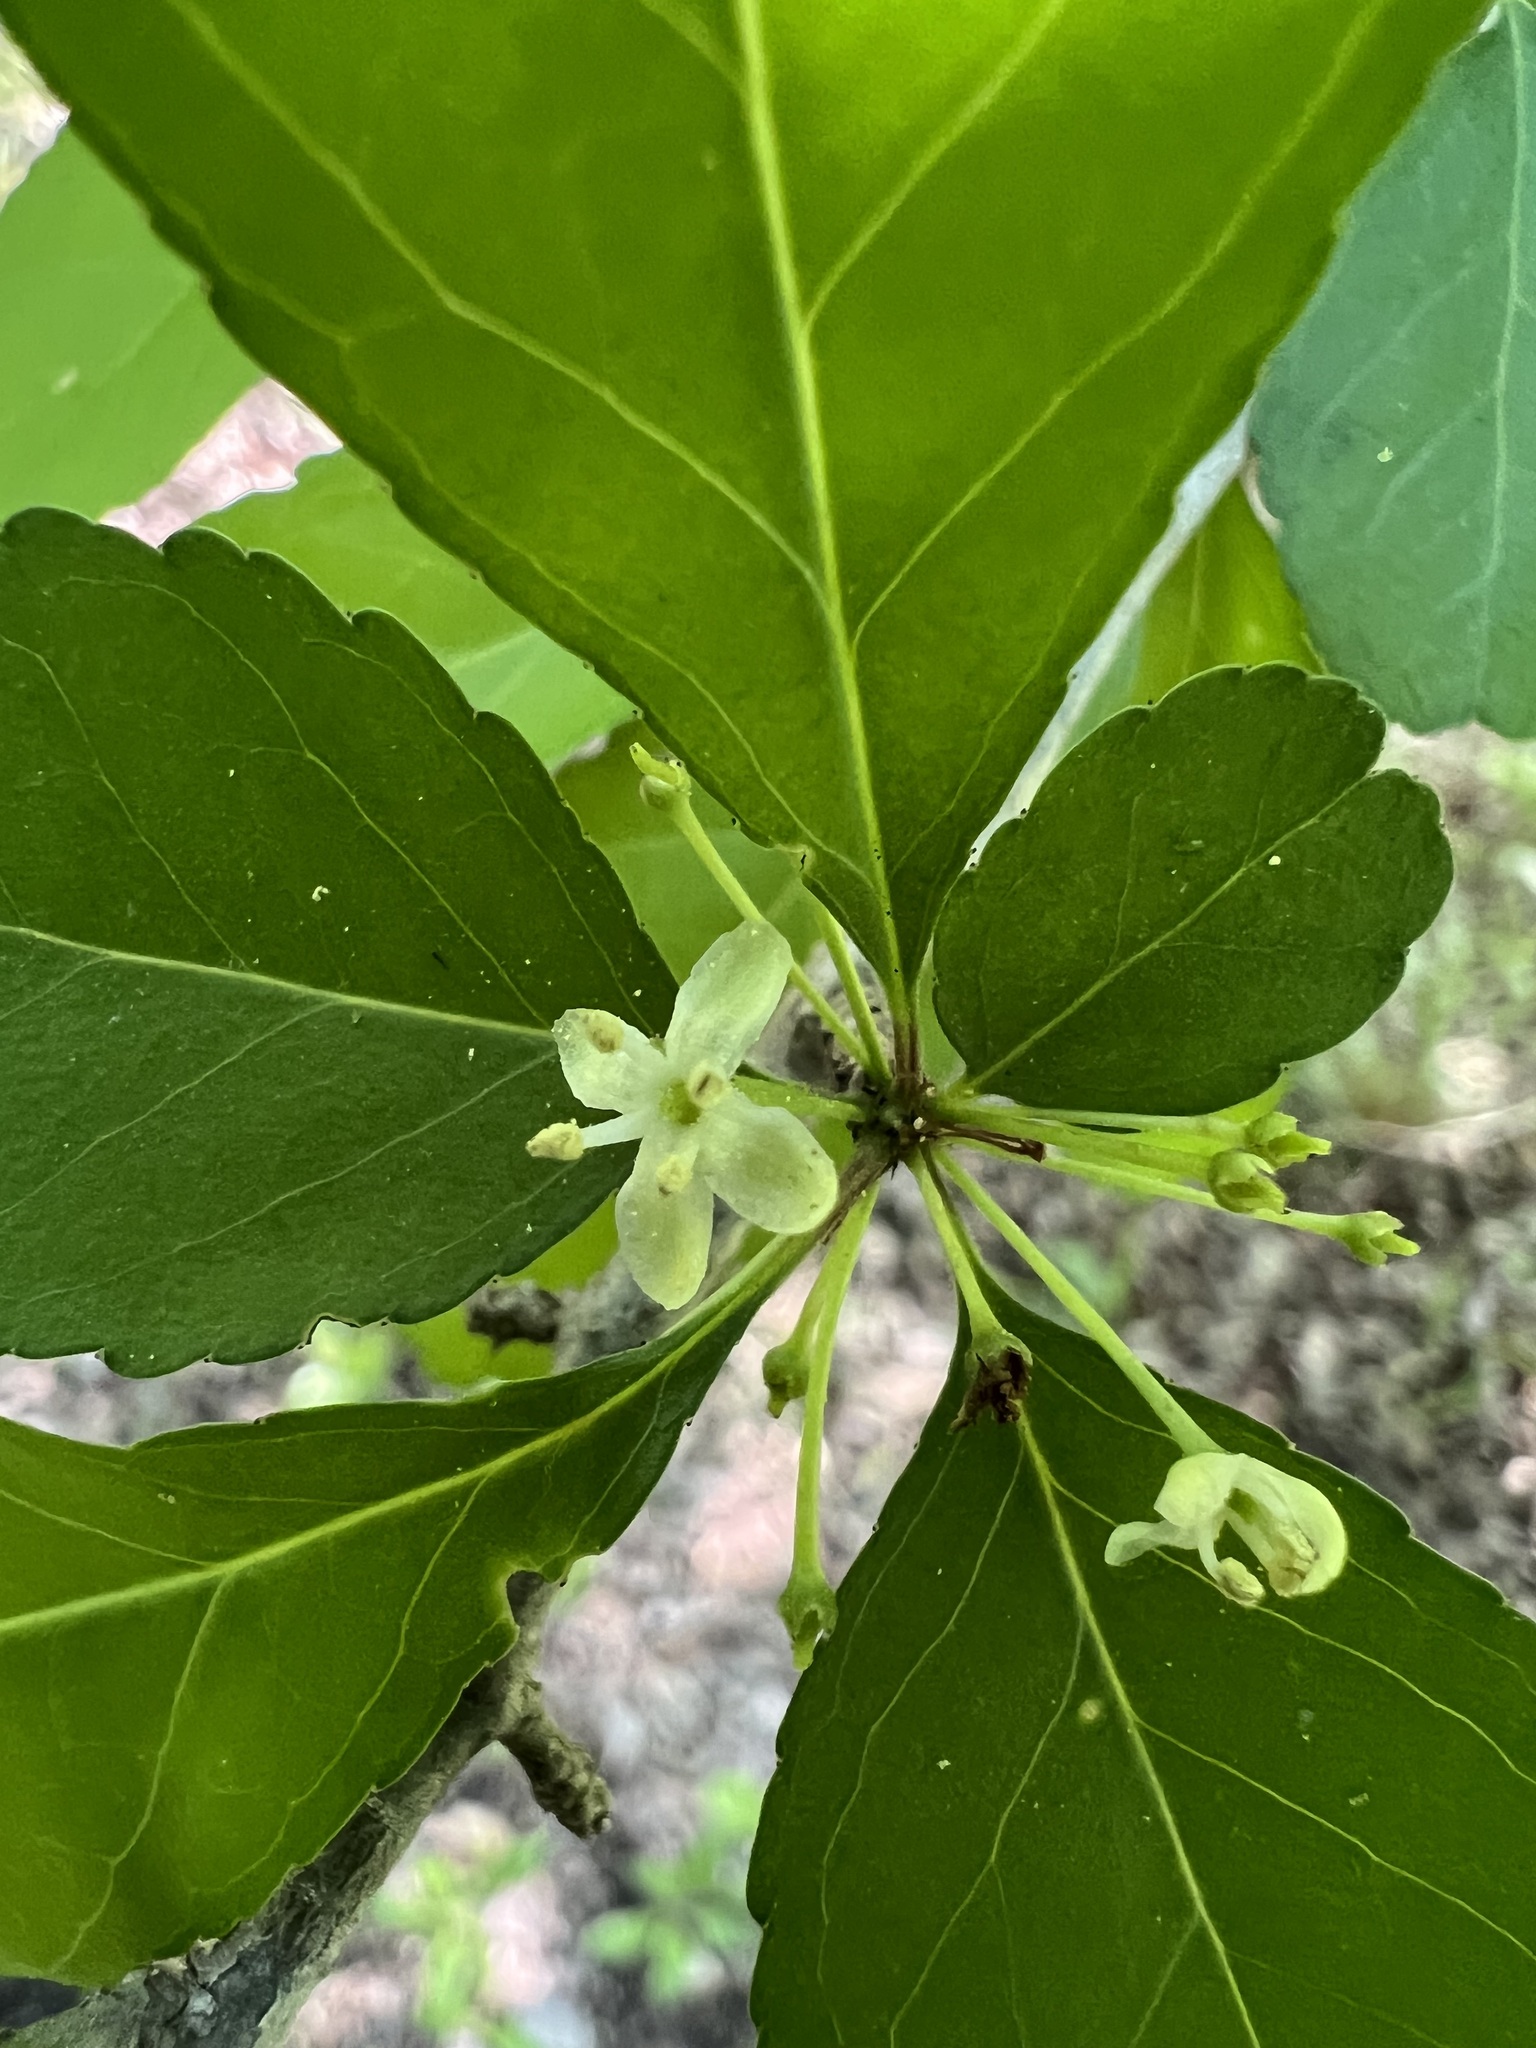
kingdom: Plantae
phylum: Tracheophyta
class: Magnoliopsida
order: Aquifoliales
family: Aquifoliaceae
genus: Ilex
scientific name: Ilex decidua
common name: Possum-haw
